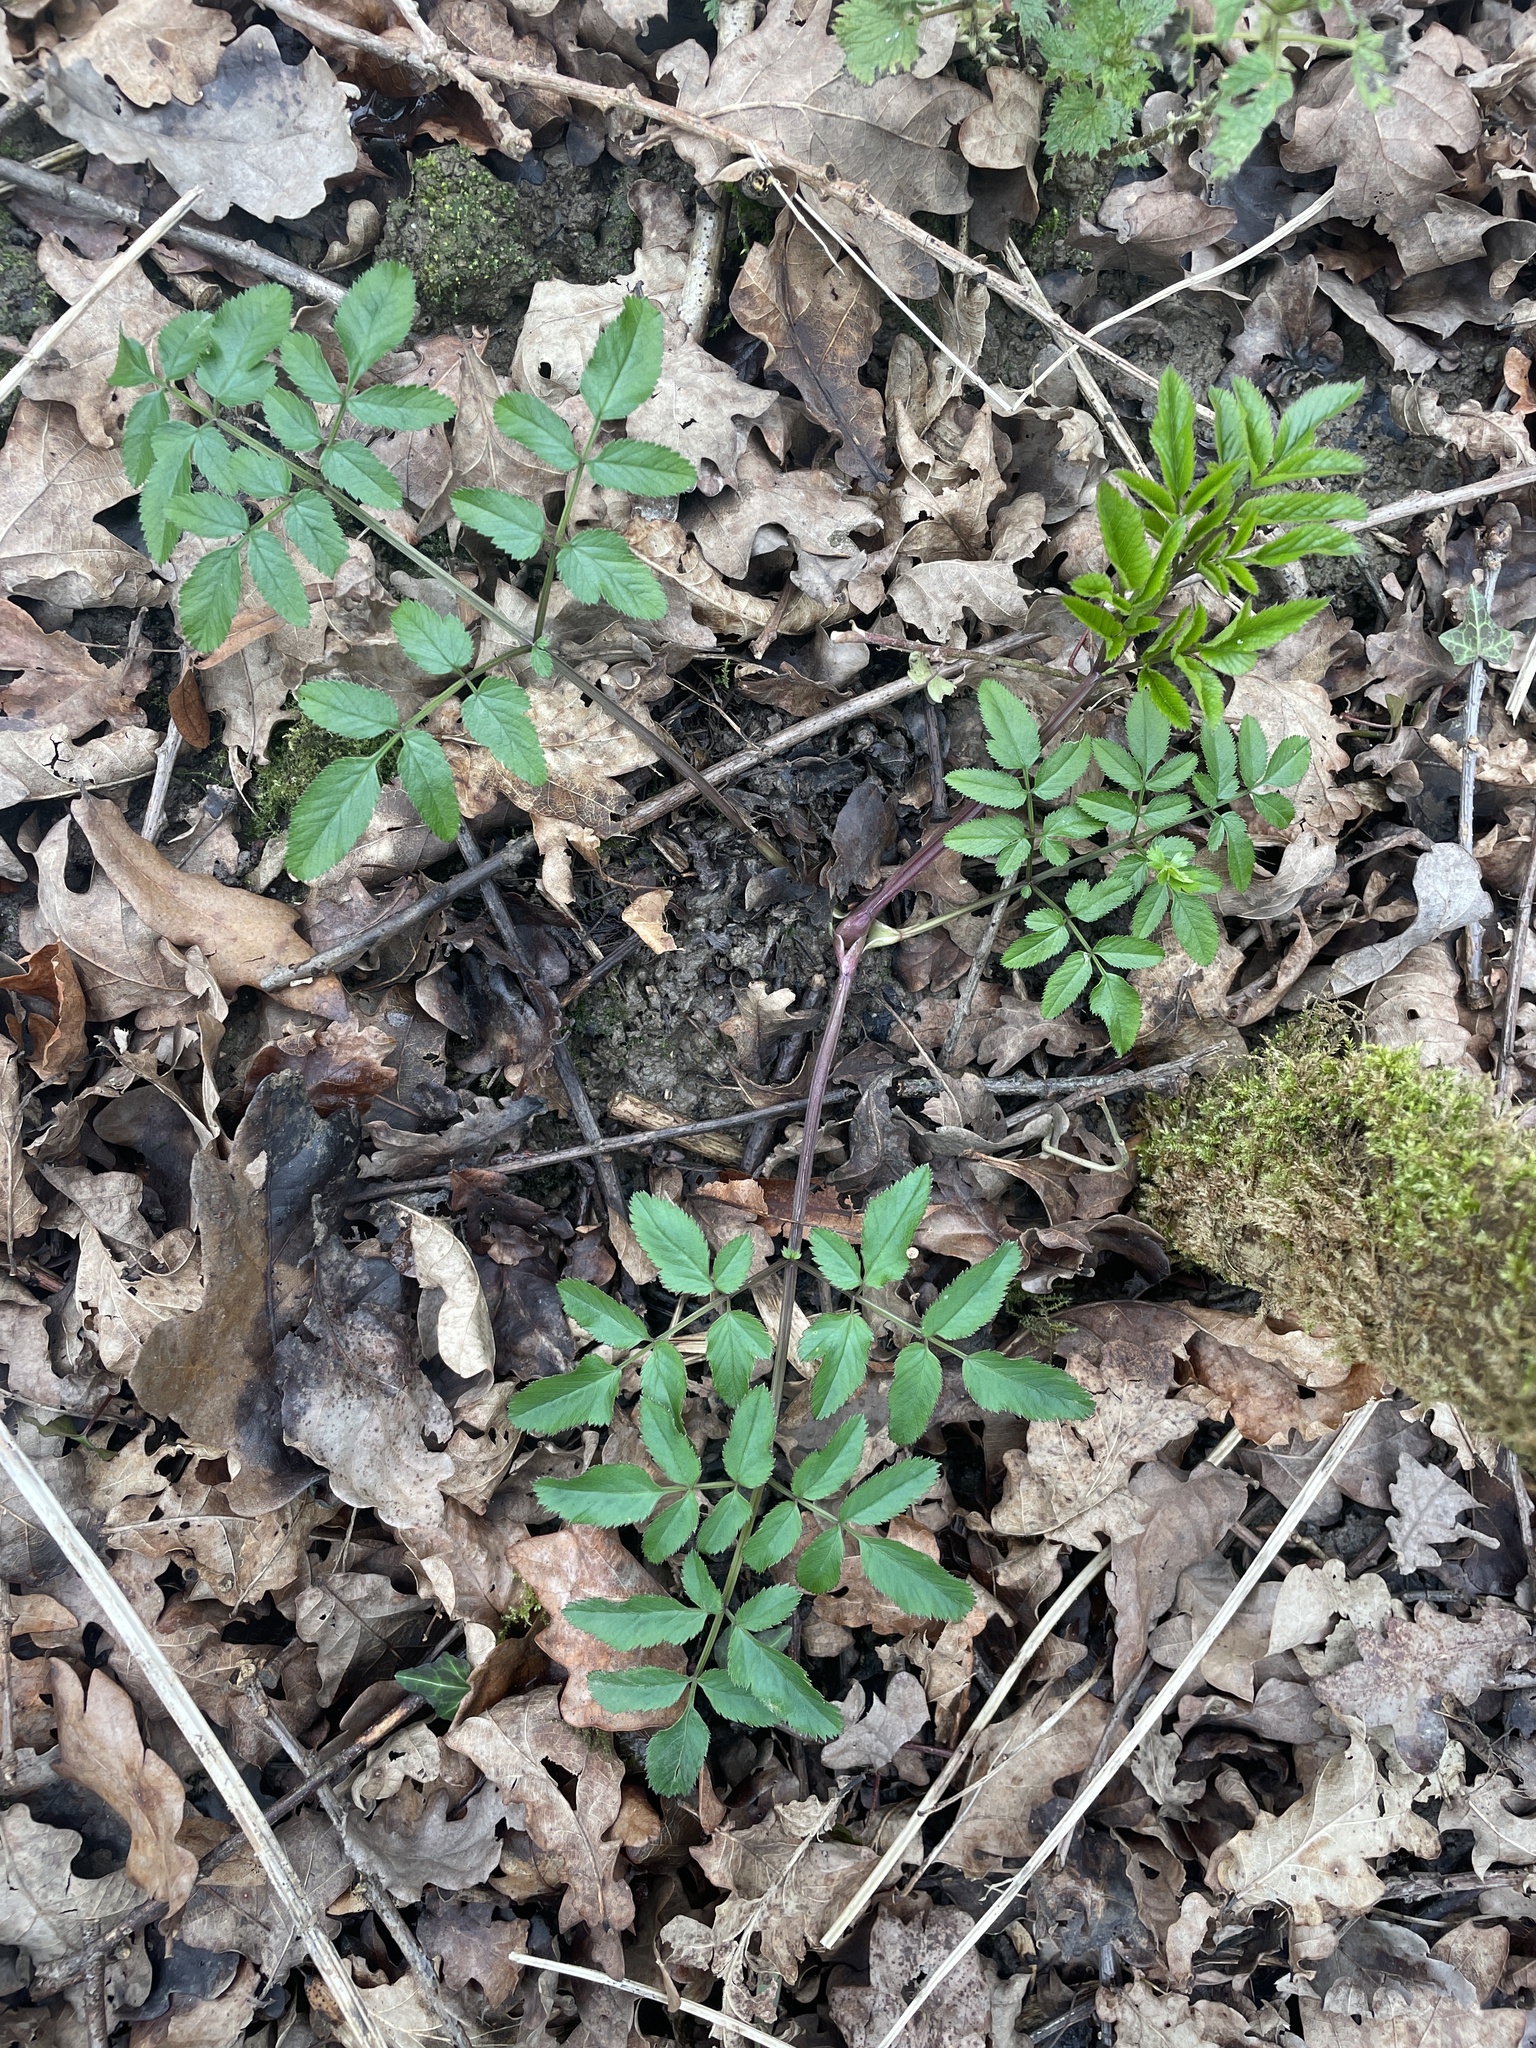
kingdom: Plantae
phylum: Tracheophyta
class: Magnoliopsida
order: Apiales
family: Apiaceae
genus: Angelica
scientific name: Angelica sylvestris
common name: Wild angelica
